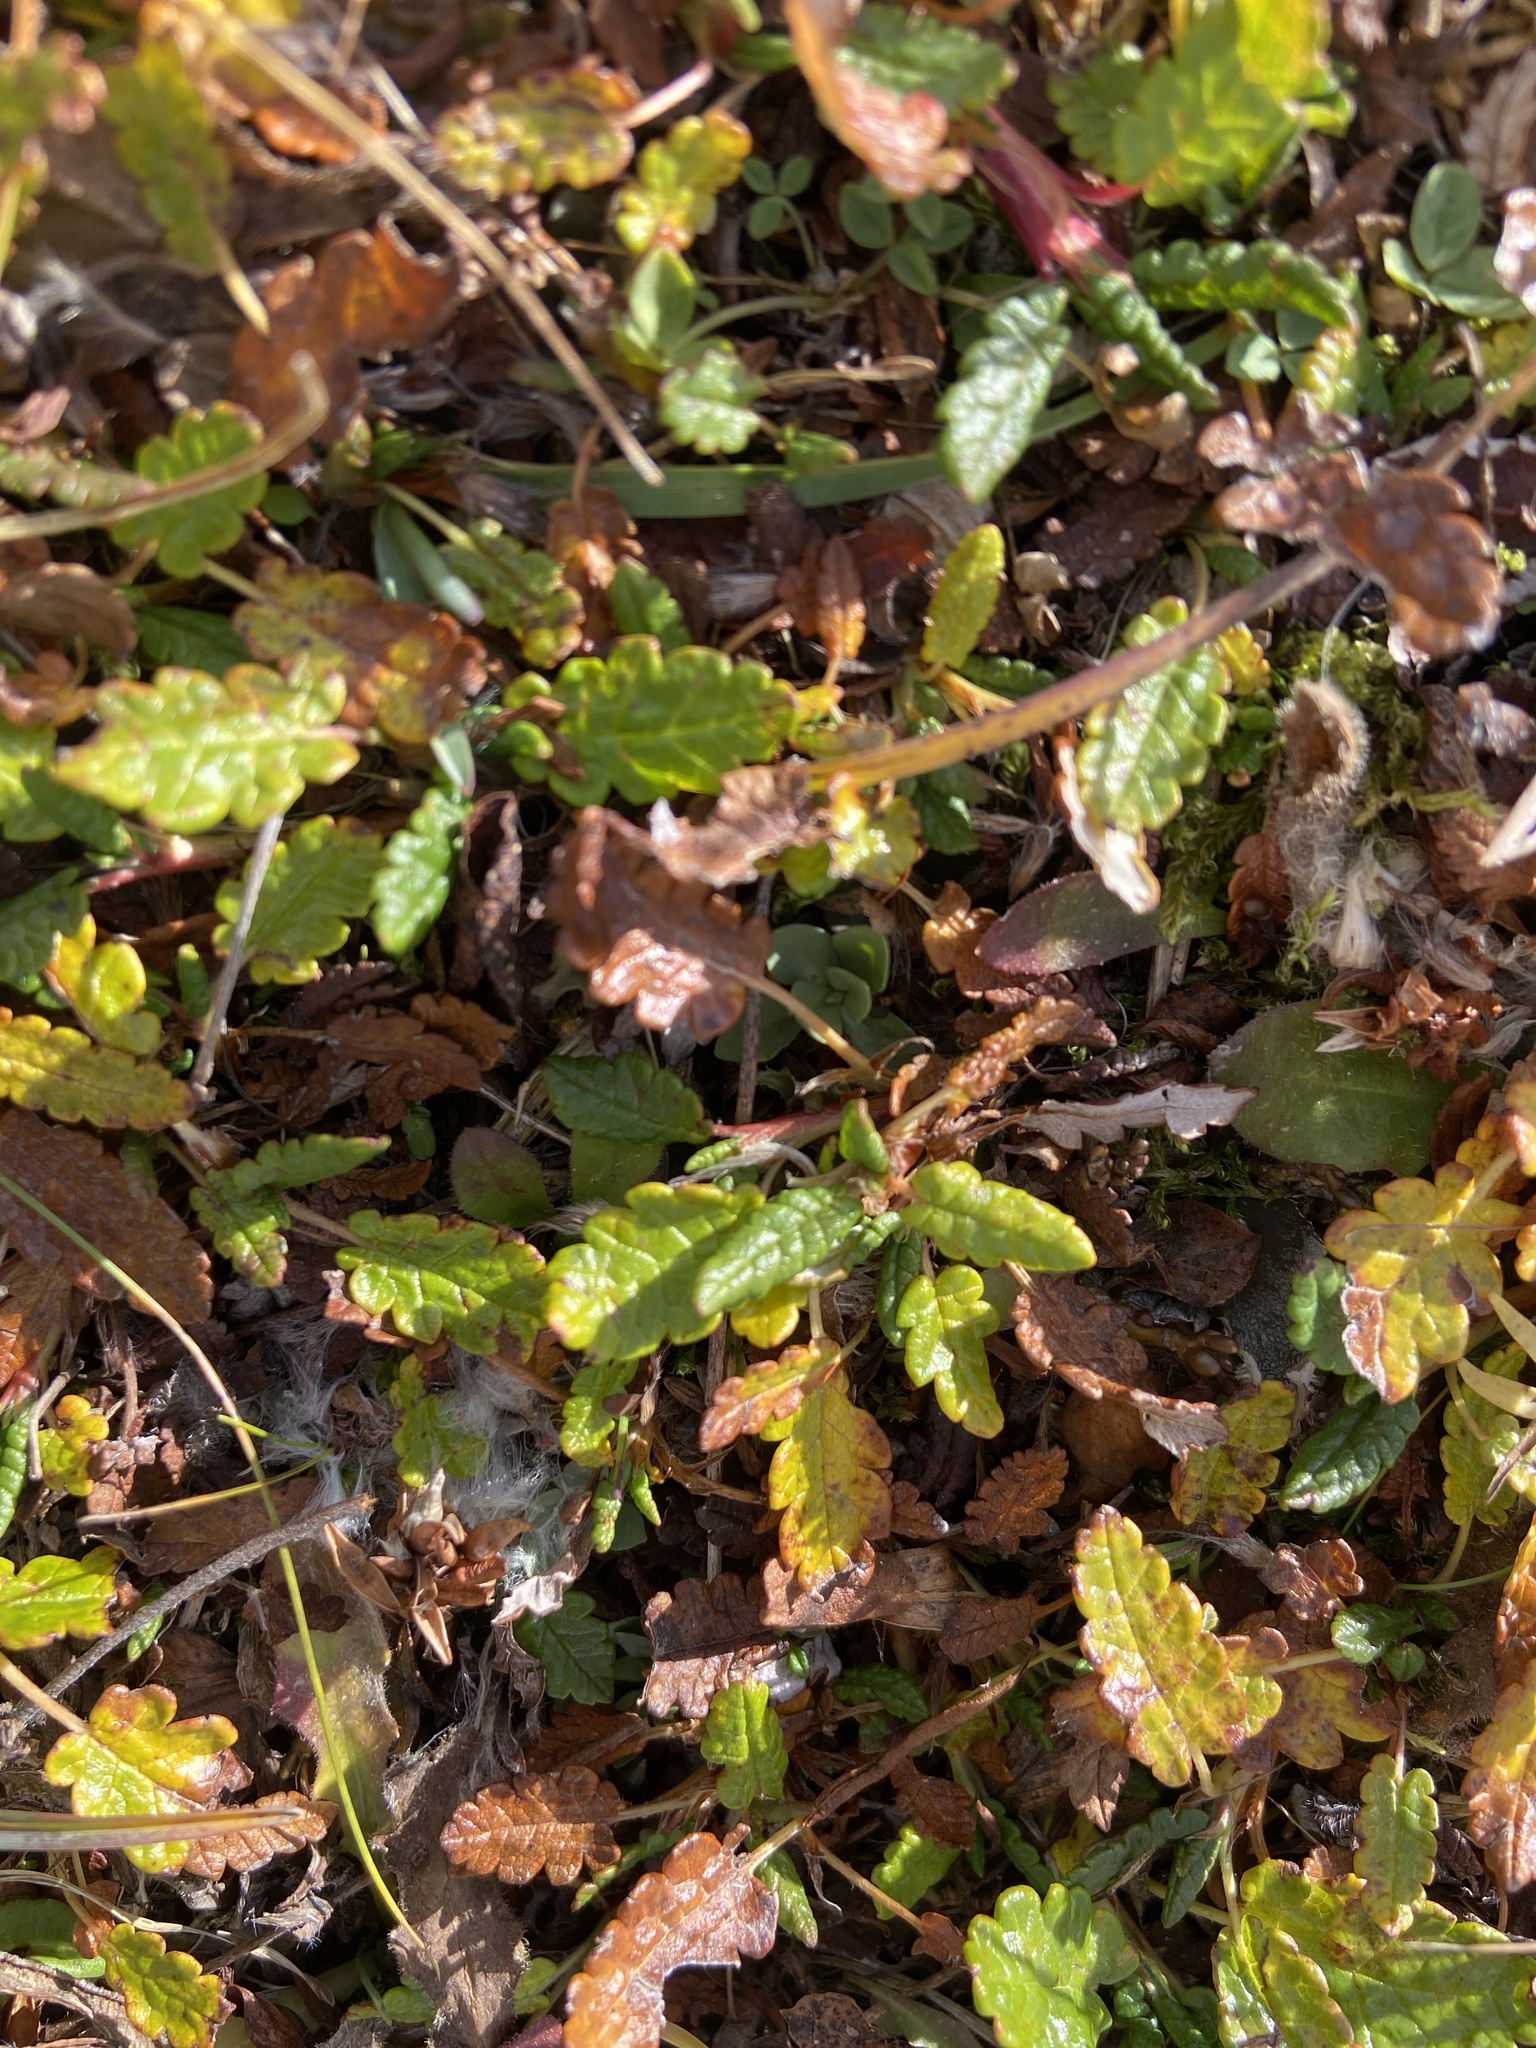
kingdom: Plantae
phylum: Tracheophyta
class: Magnoliopsida
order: Rosales
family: Rosaceae
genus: Dryas
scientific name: Dryas octopetala
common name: Eight-petal mountain-avens
